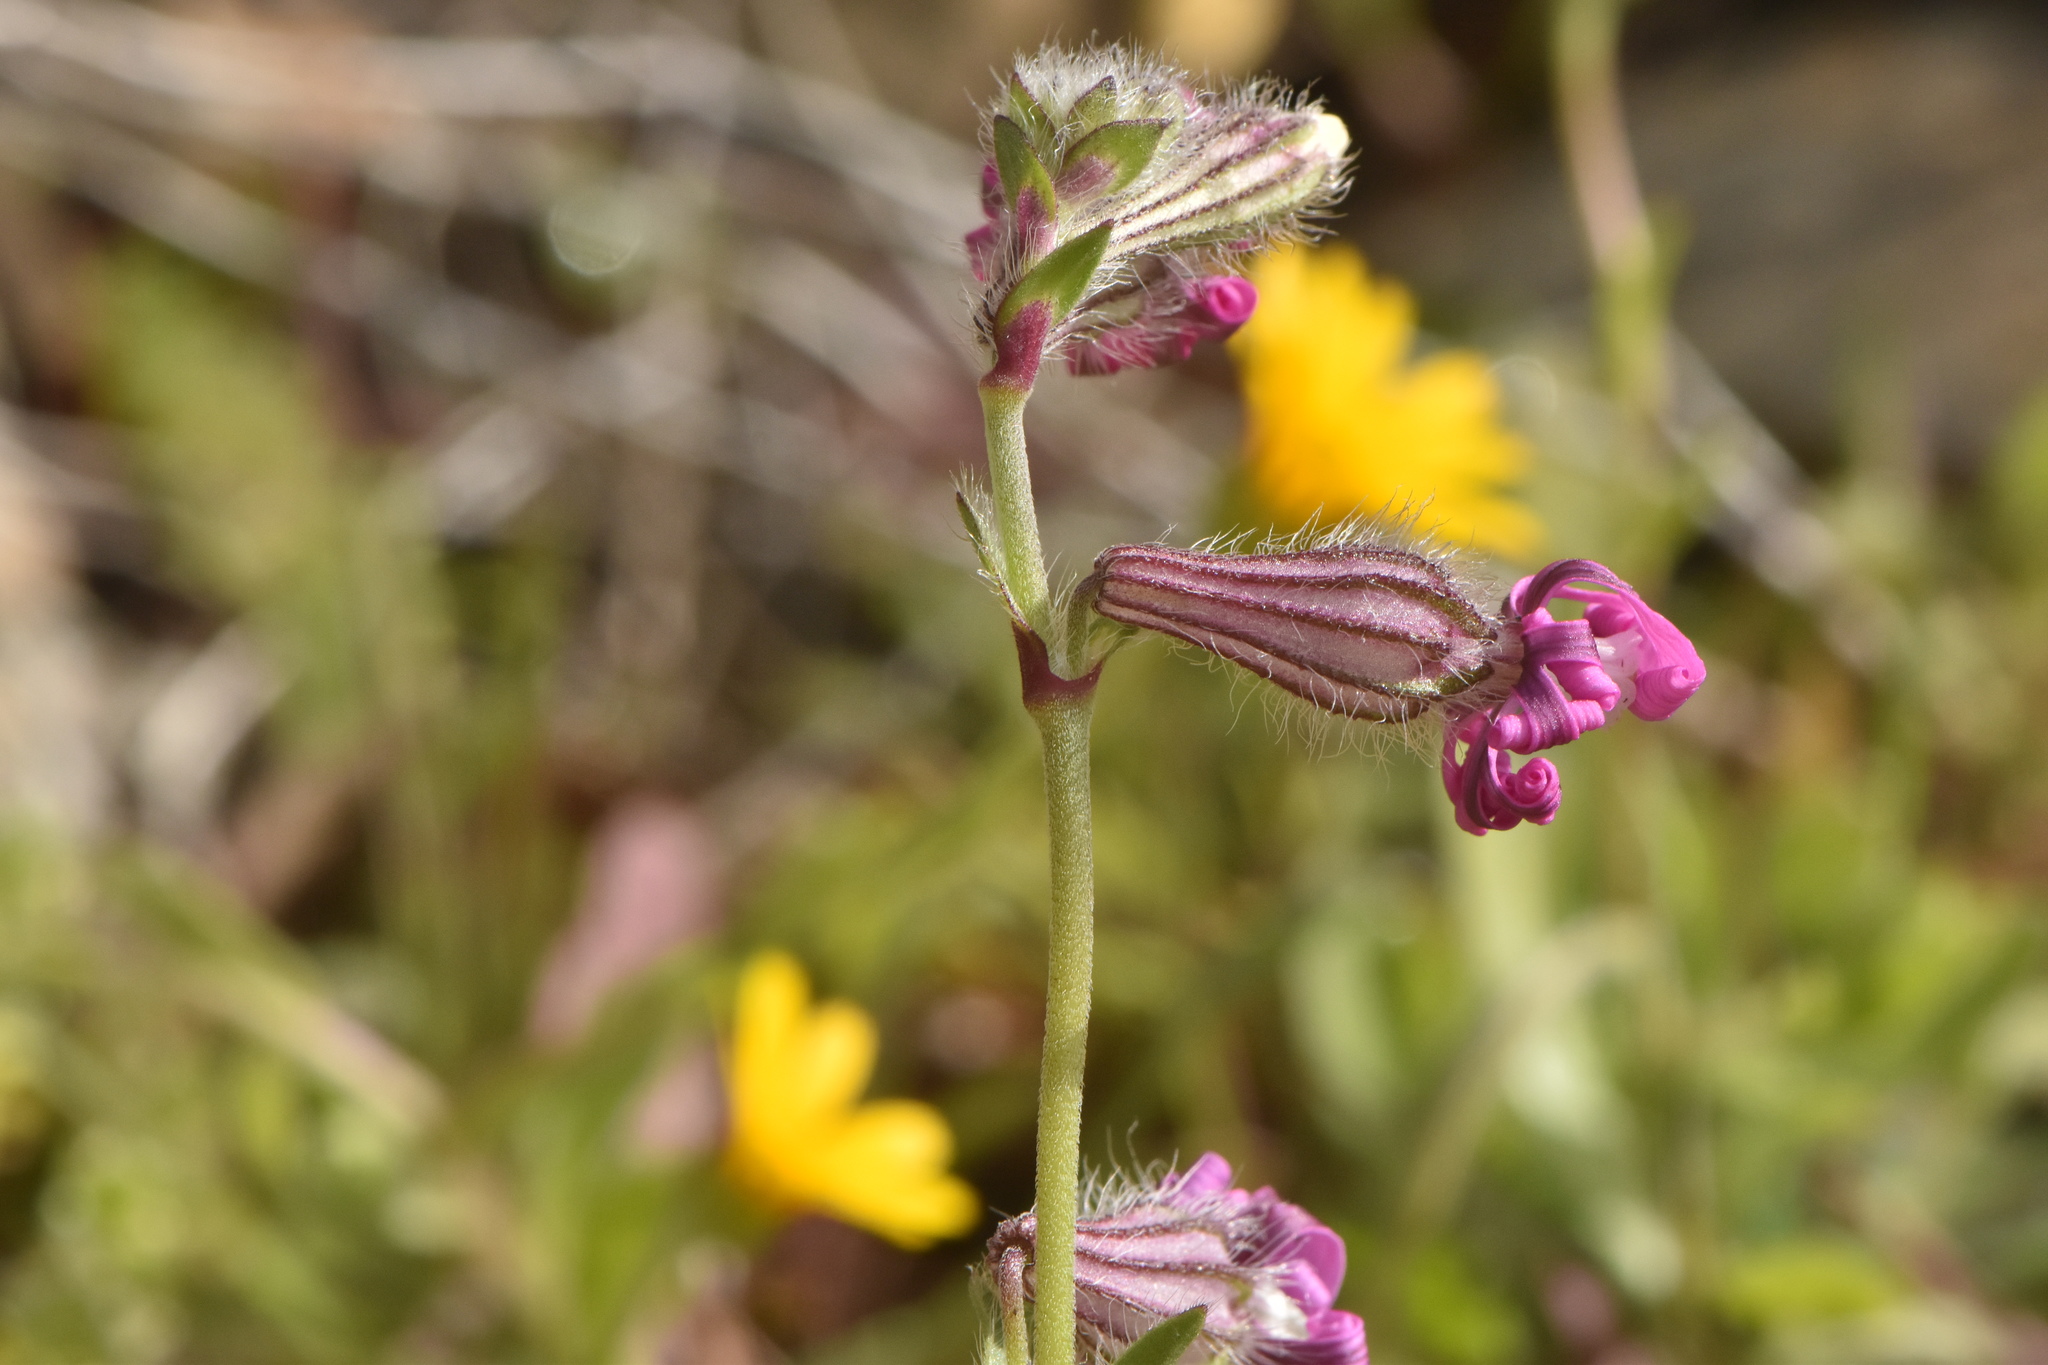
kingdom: Plantae
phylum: Tracheophyta
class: Magnoliopsida
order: Caryophyllales
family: Caryophyllaceae
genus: Silene
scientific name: Silene colorata
